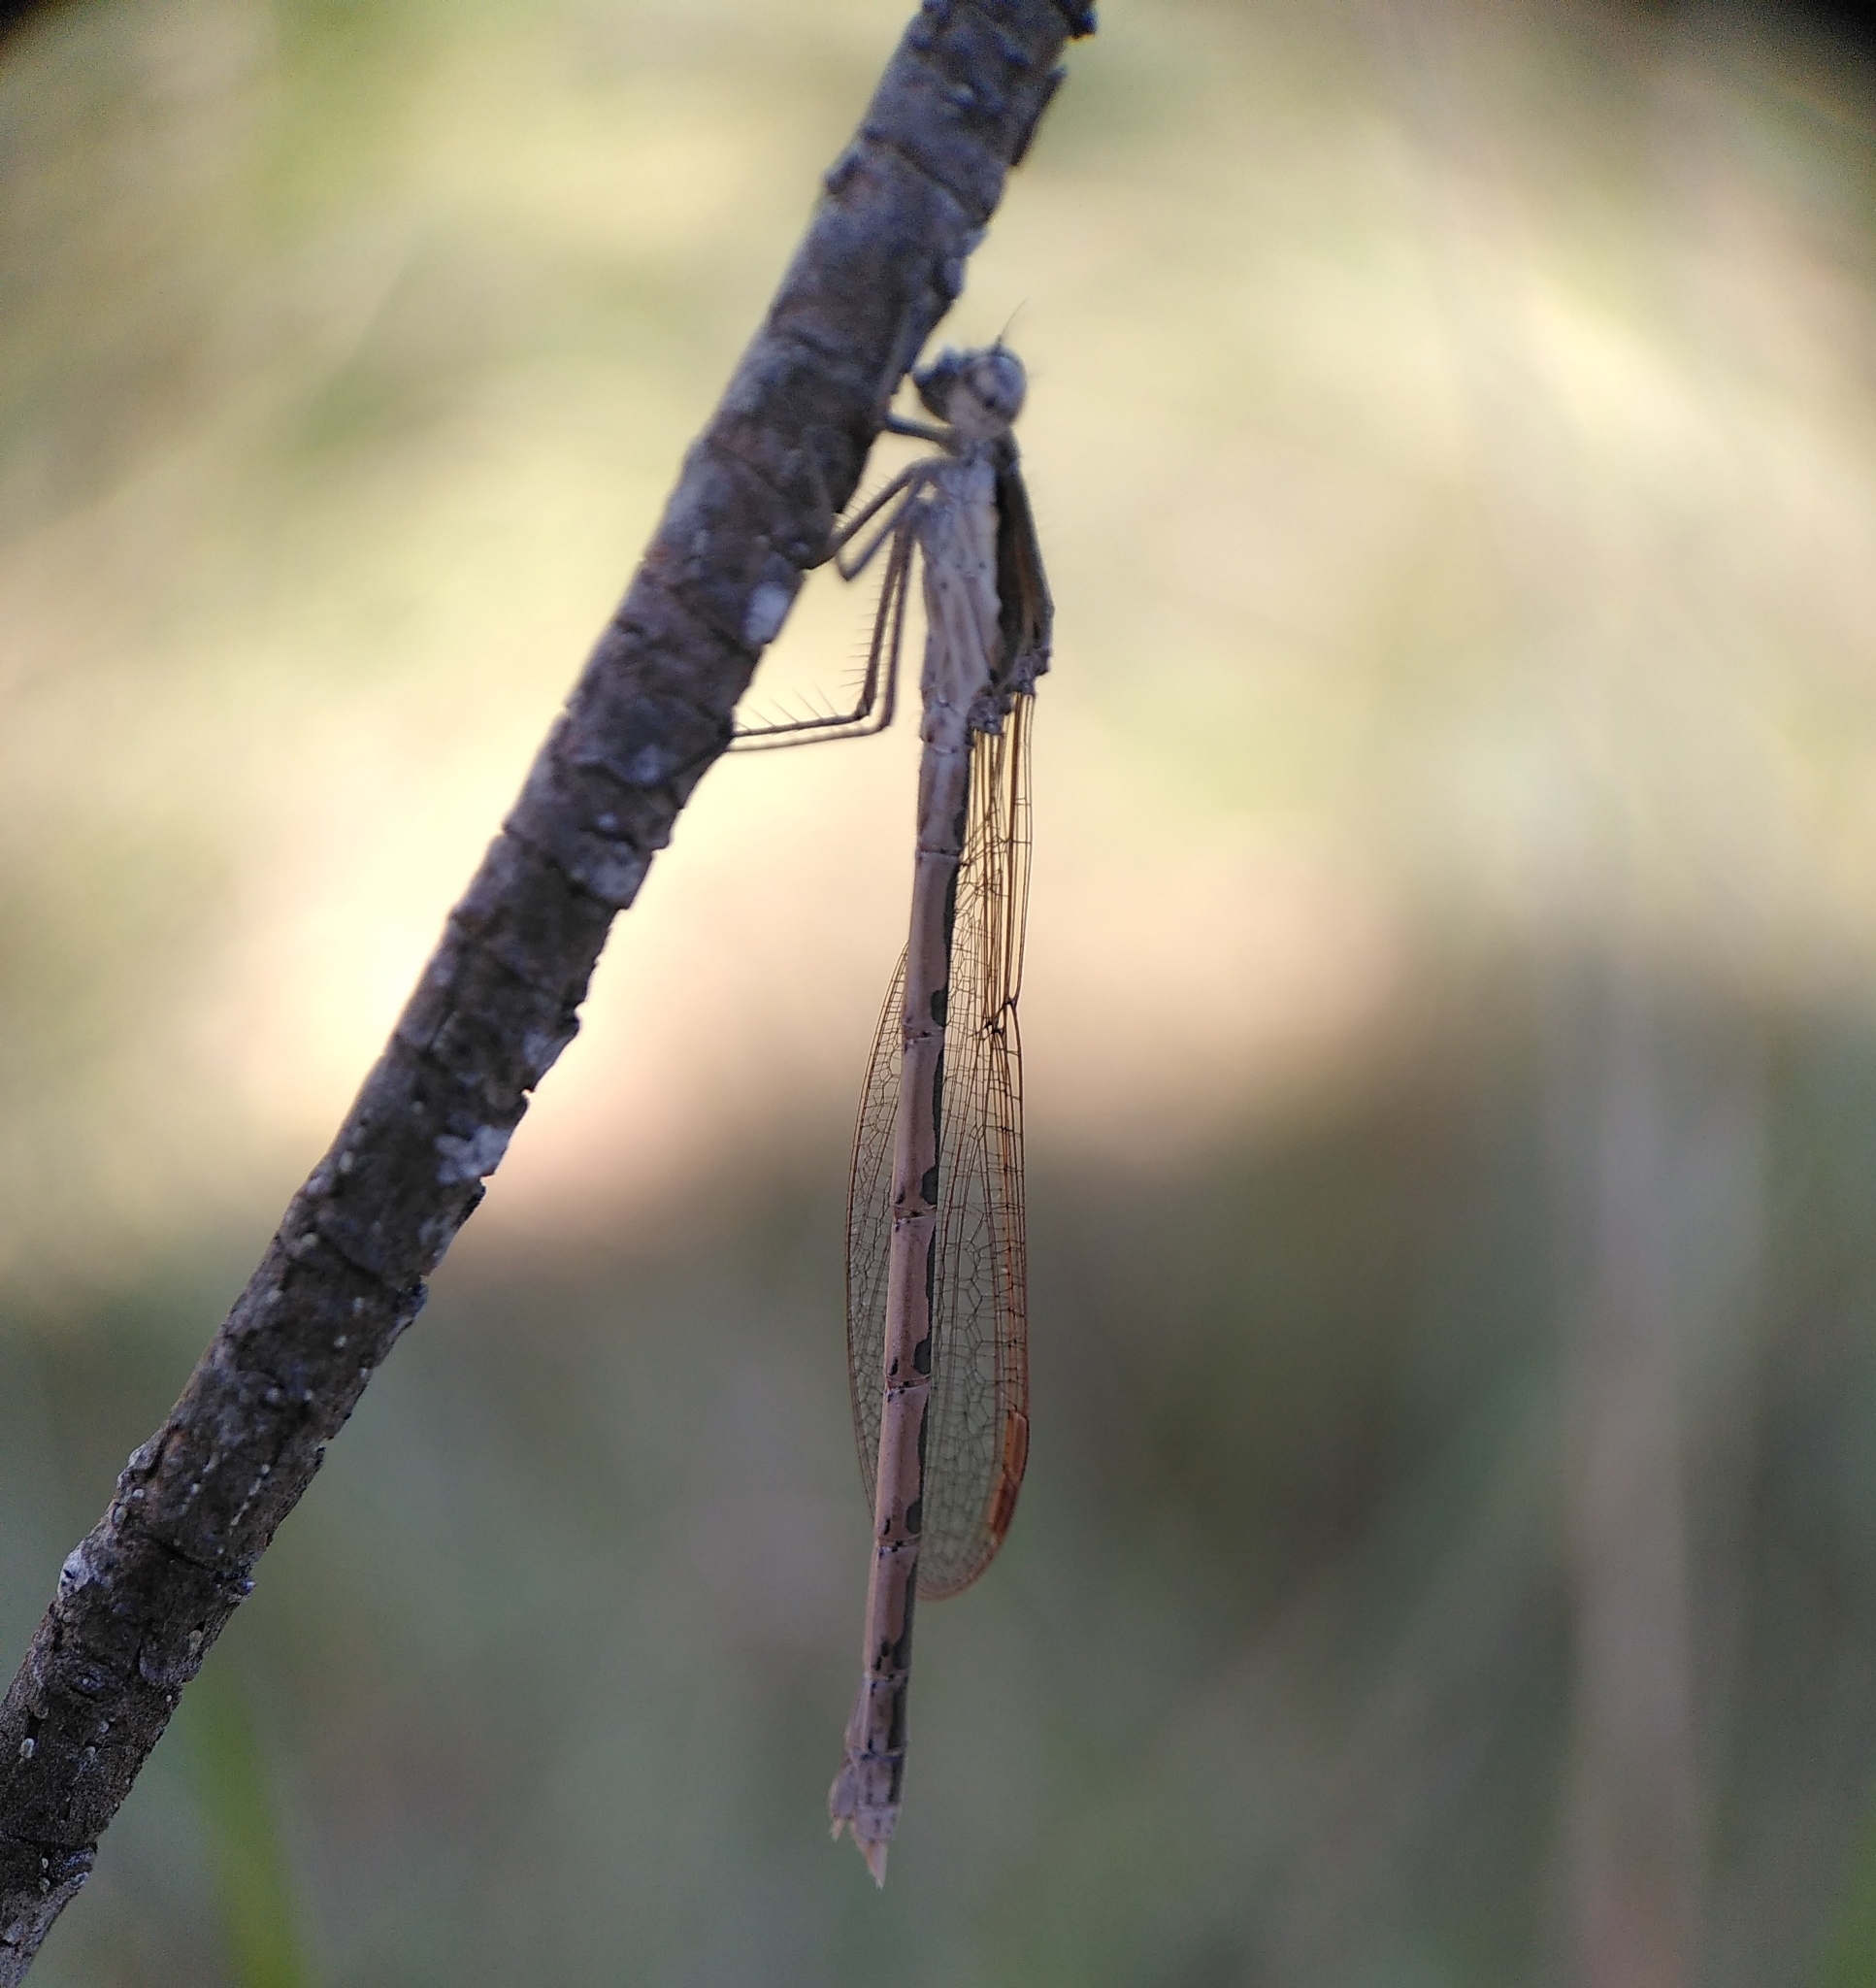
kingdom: Animalia
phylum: Arthropoda
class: Insecta
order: Odonata
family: Lestidae
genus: Sympecma
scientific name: Sympecma fusca
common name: Common winter damsel
